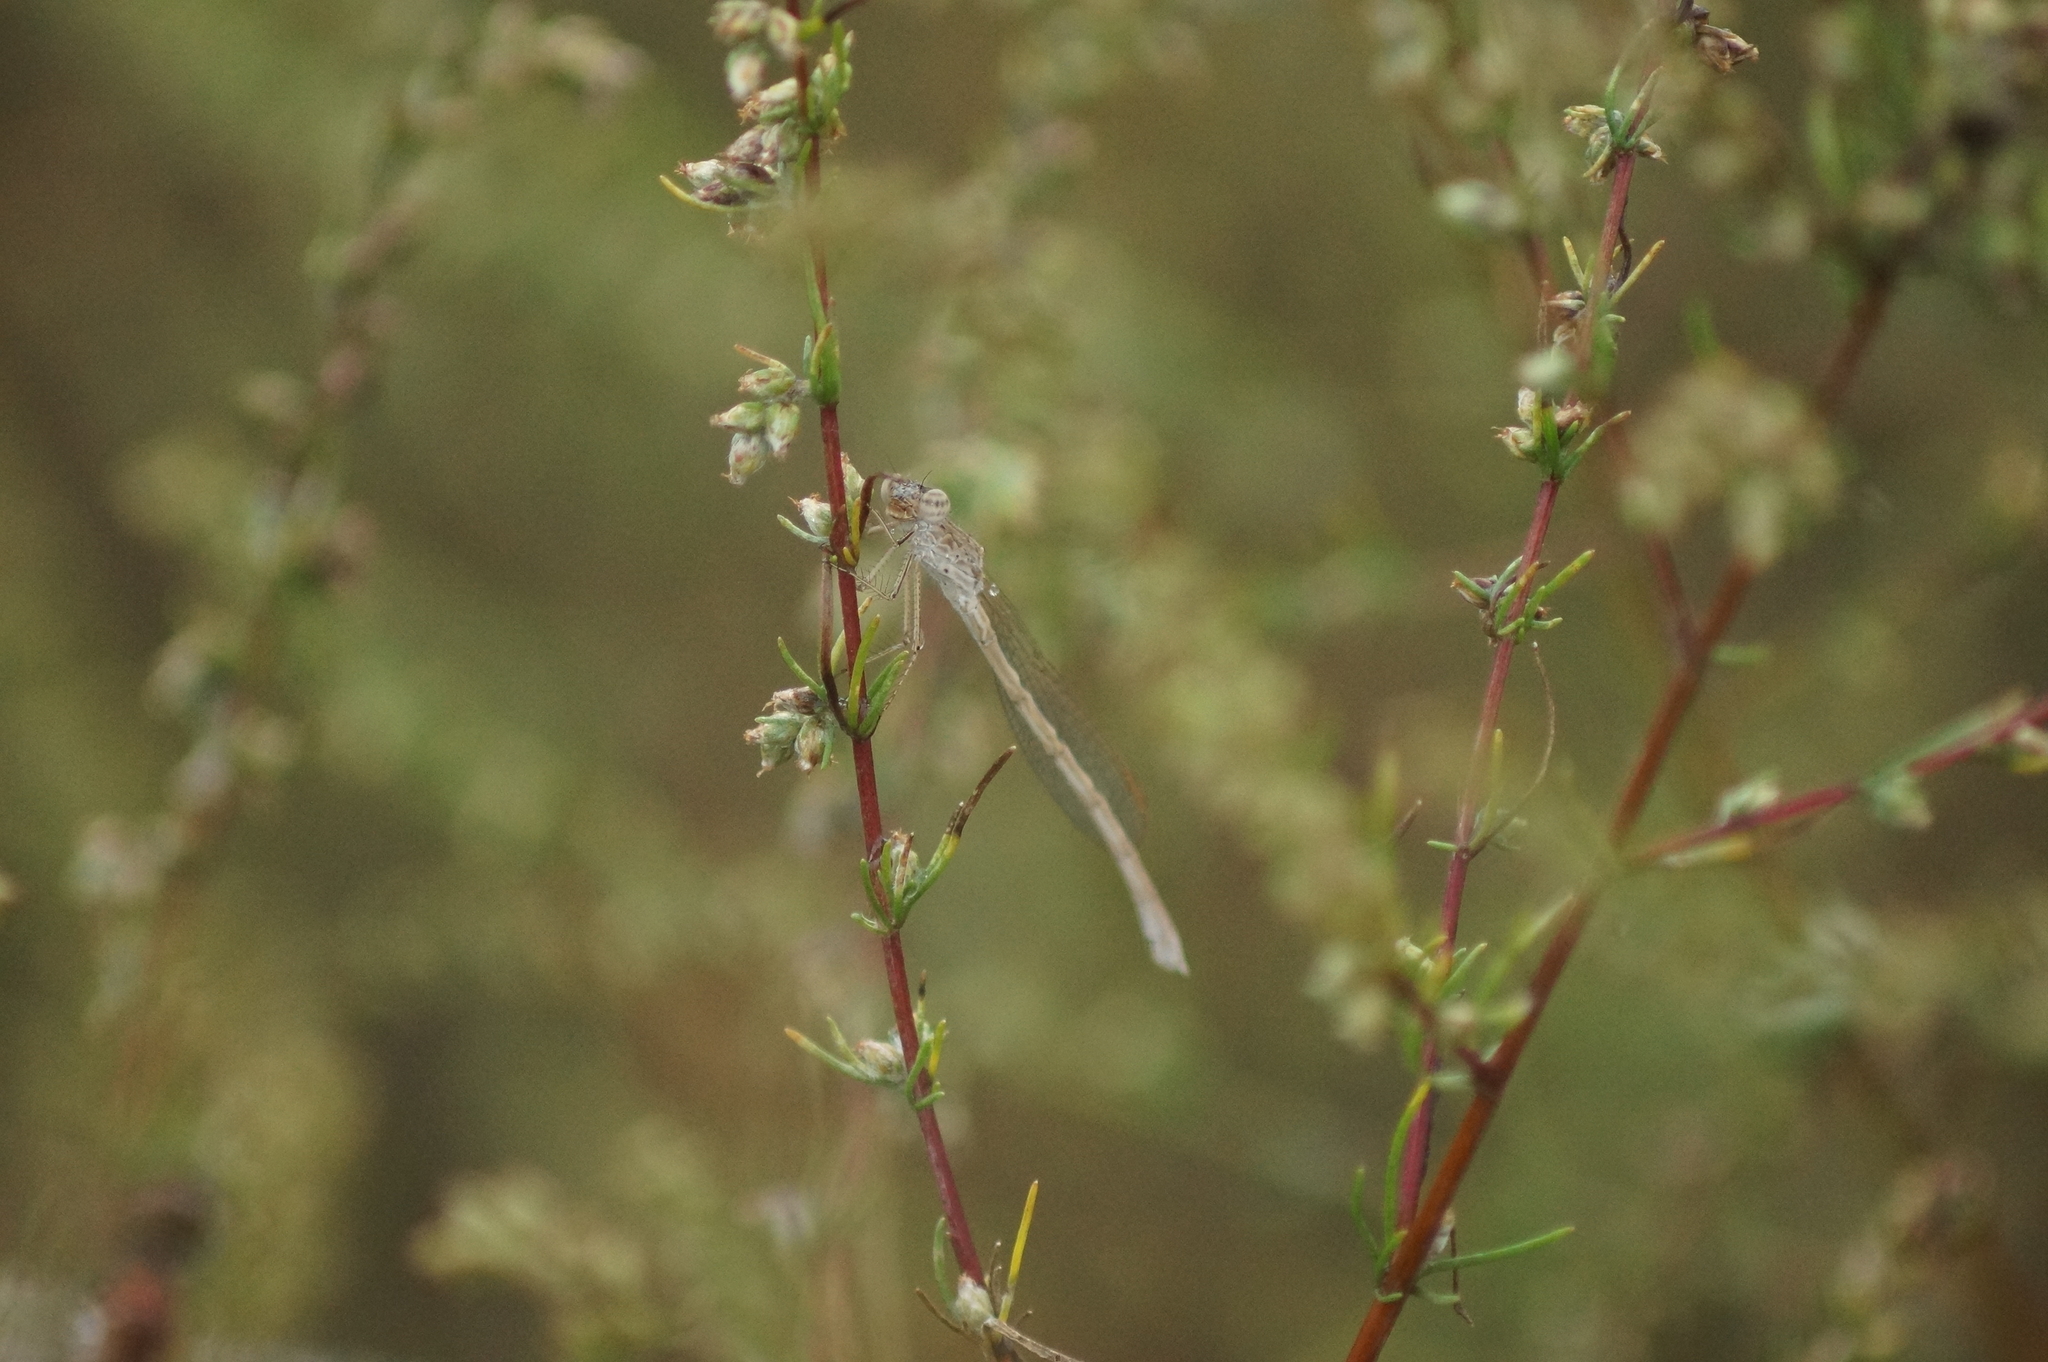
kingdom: Animalia
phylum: Arthropoda
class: Insecta
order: Odonata
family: Lestidae
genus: Sympecma
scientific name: Sympecma paedisca
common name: Siberian winter damsel
